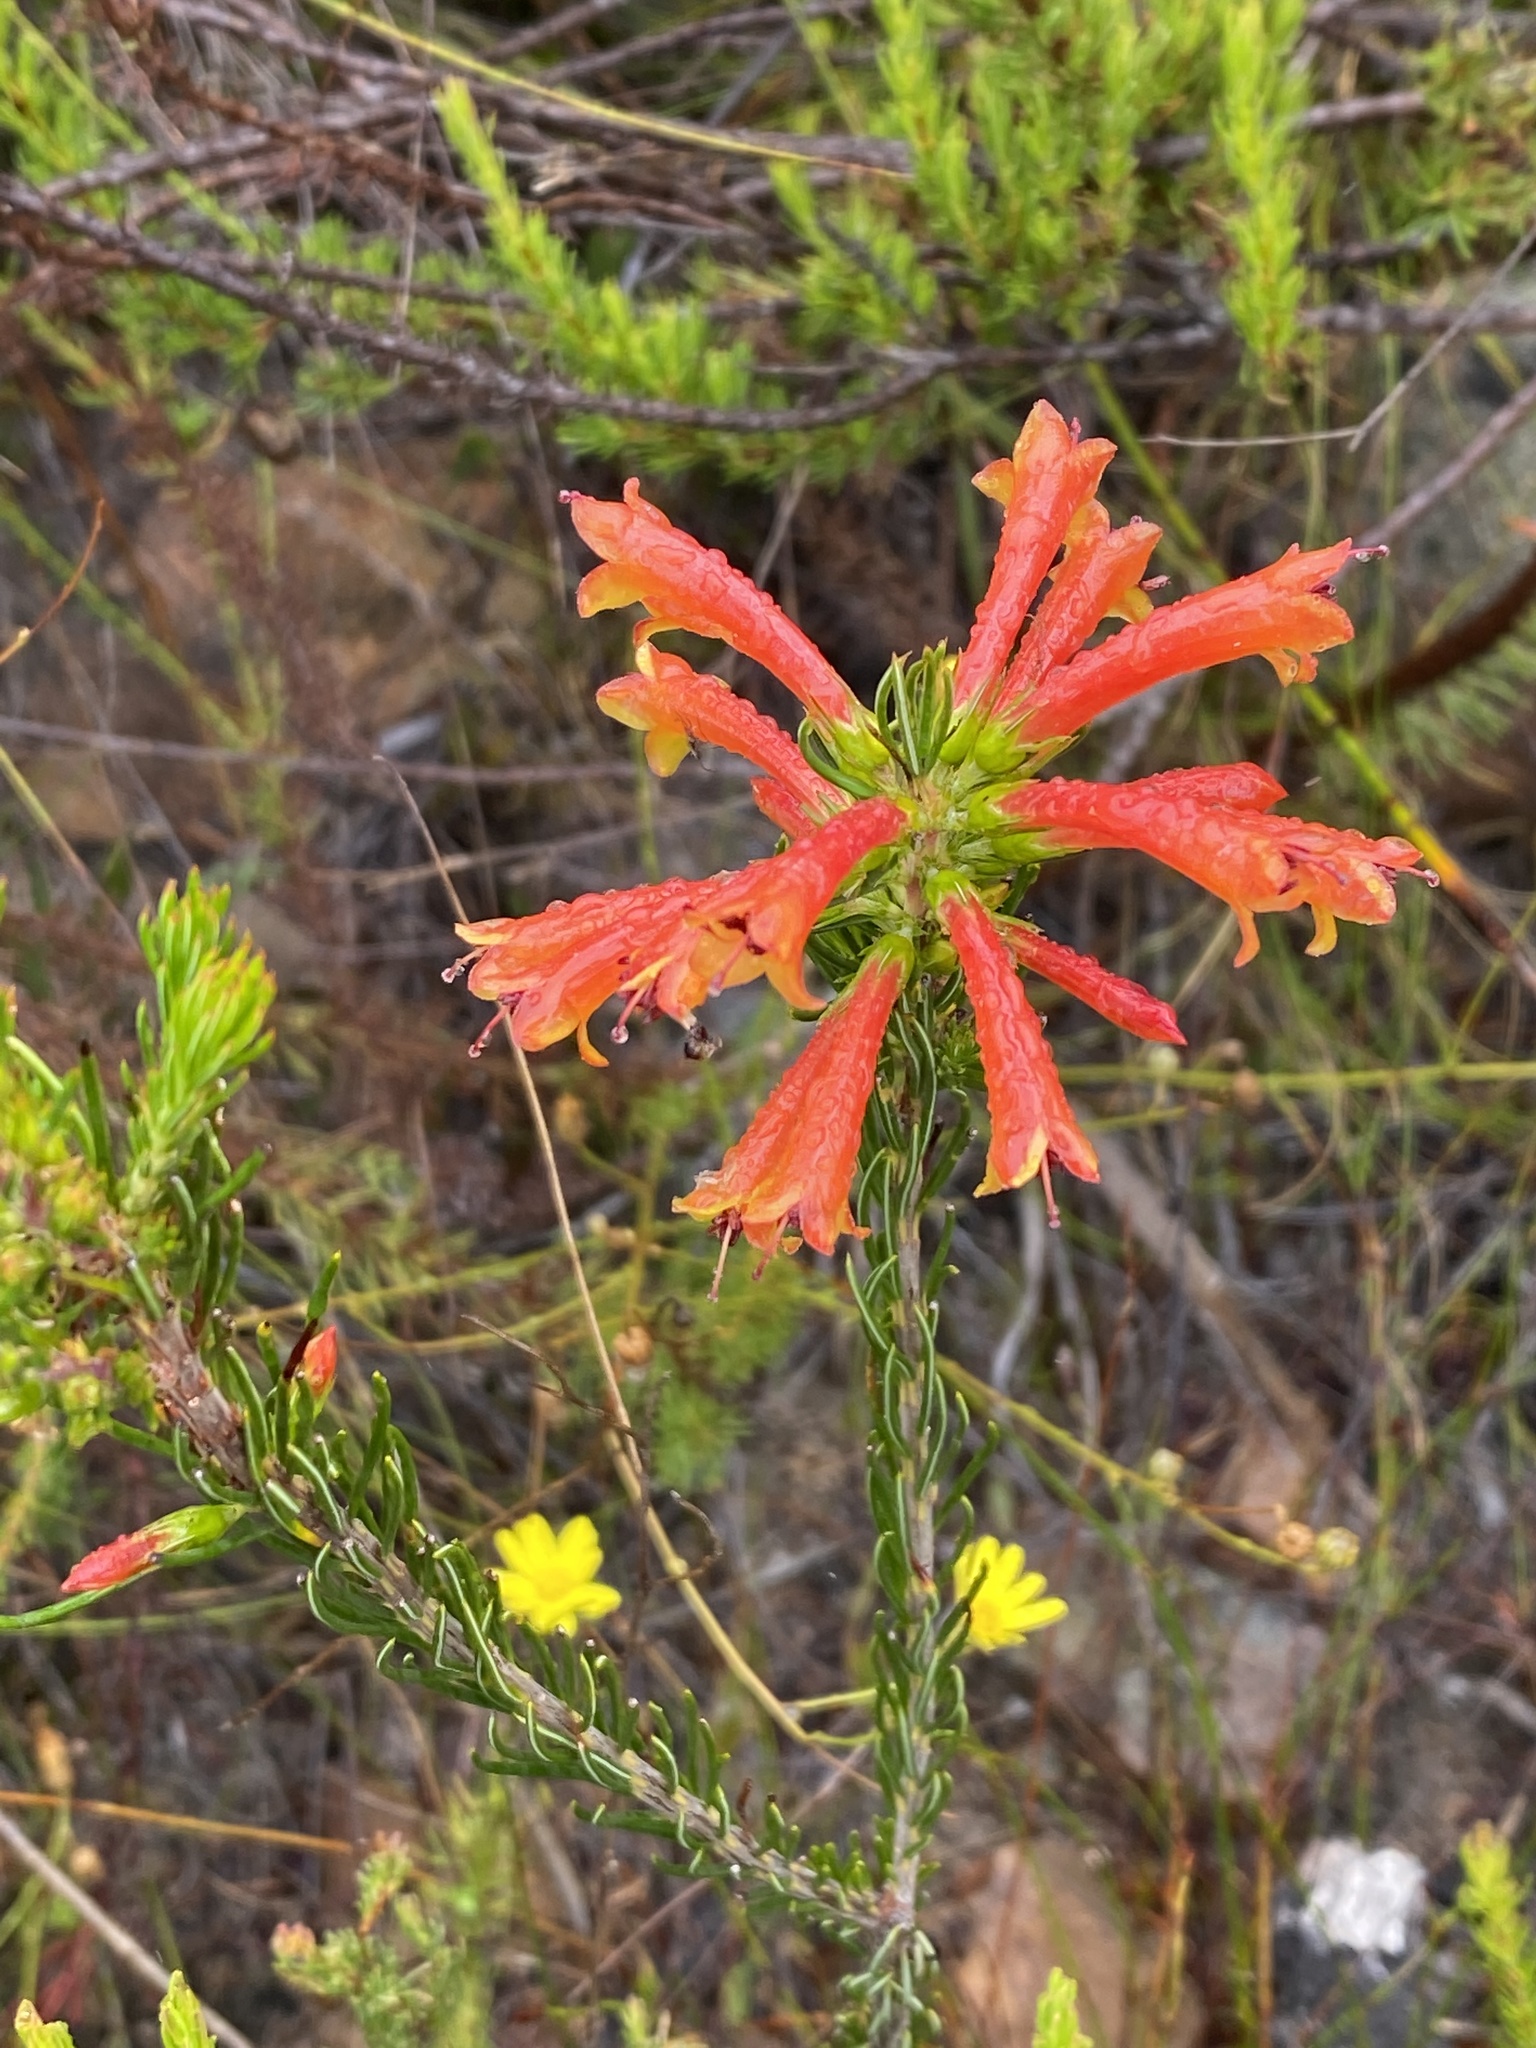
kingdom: Plantae
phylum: Tracheophyta
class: Magnoliopsida
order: Ericales
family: Ericaceae
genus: Erica
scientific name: Erica grandiflora
